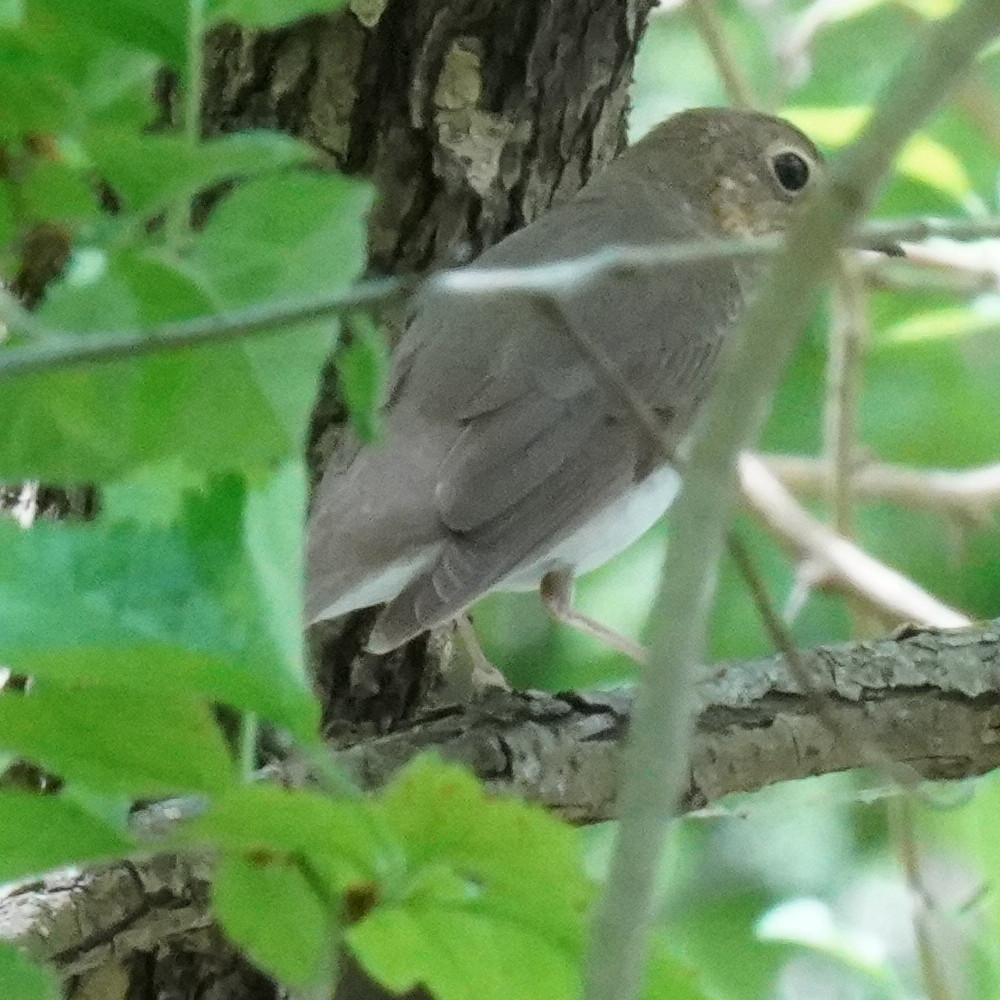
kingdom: Animalia
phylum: Chordata
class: Aves
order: Passeriformes
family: Turdidae
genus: Catharus
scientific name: Catharus ustulatus
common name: Swainson's thrush
